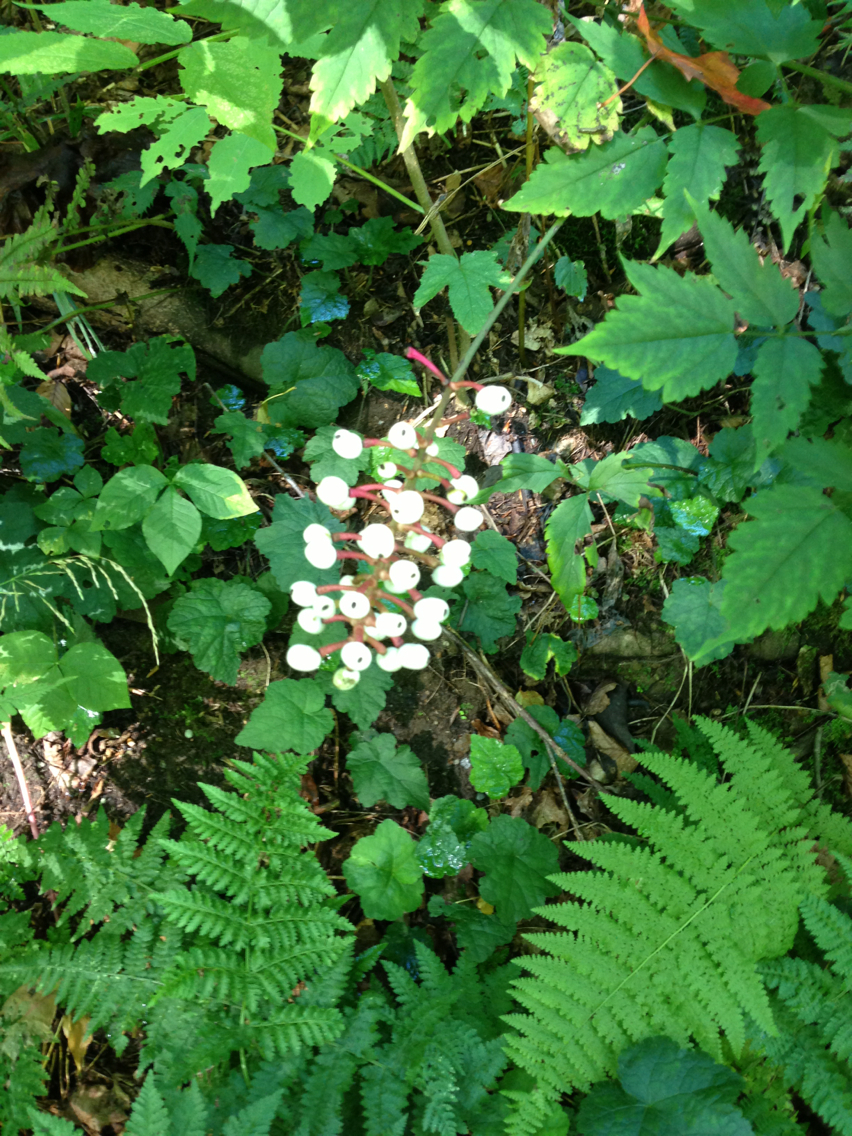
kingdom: Plantae
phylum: Tracheophyta
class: Magnoliopsida
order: Ranunculales
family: Ranunculaceae
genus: Actaea
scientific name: Actaea pachypoda
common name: Doll's-eyes
